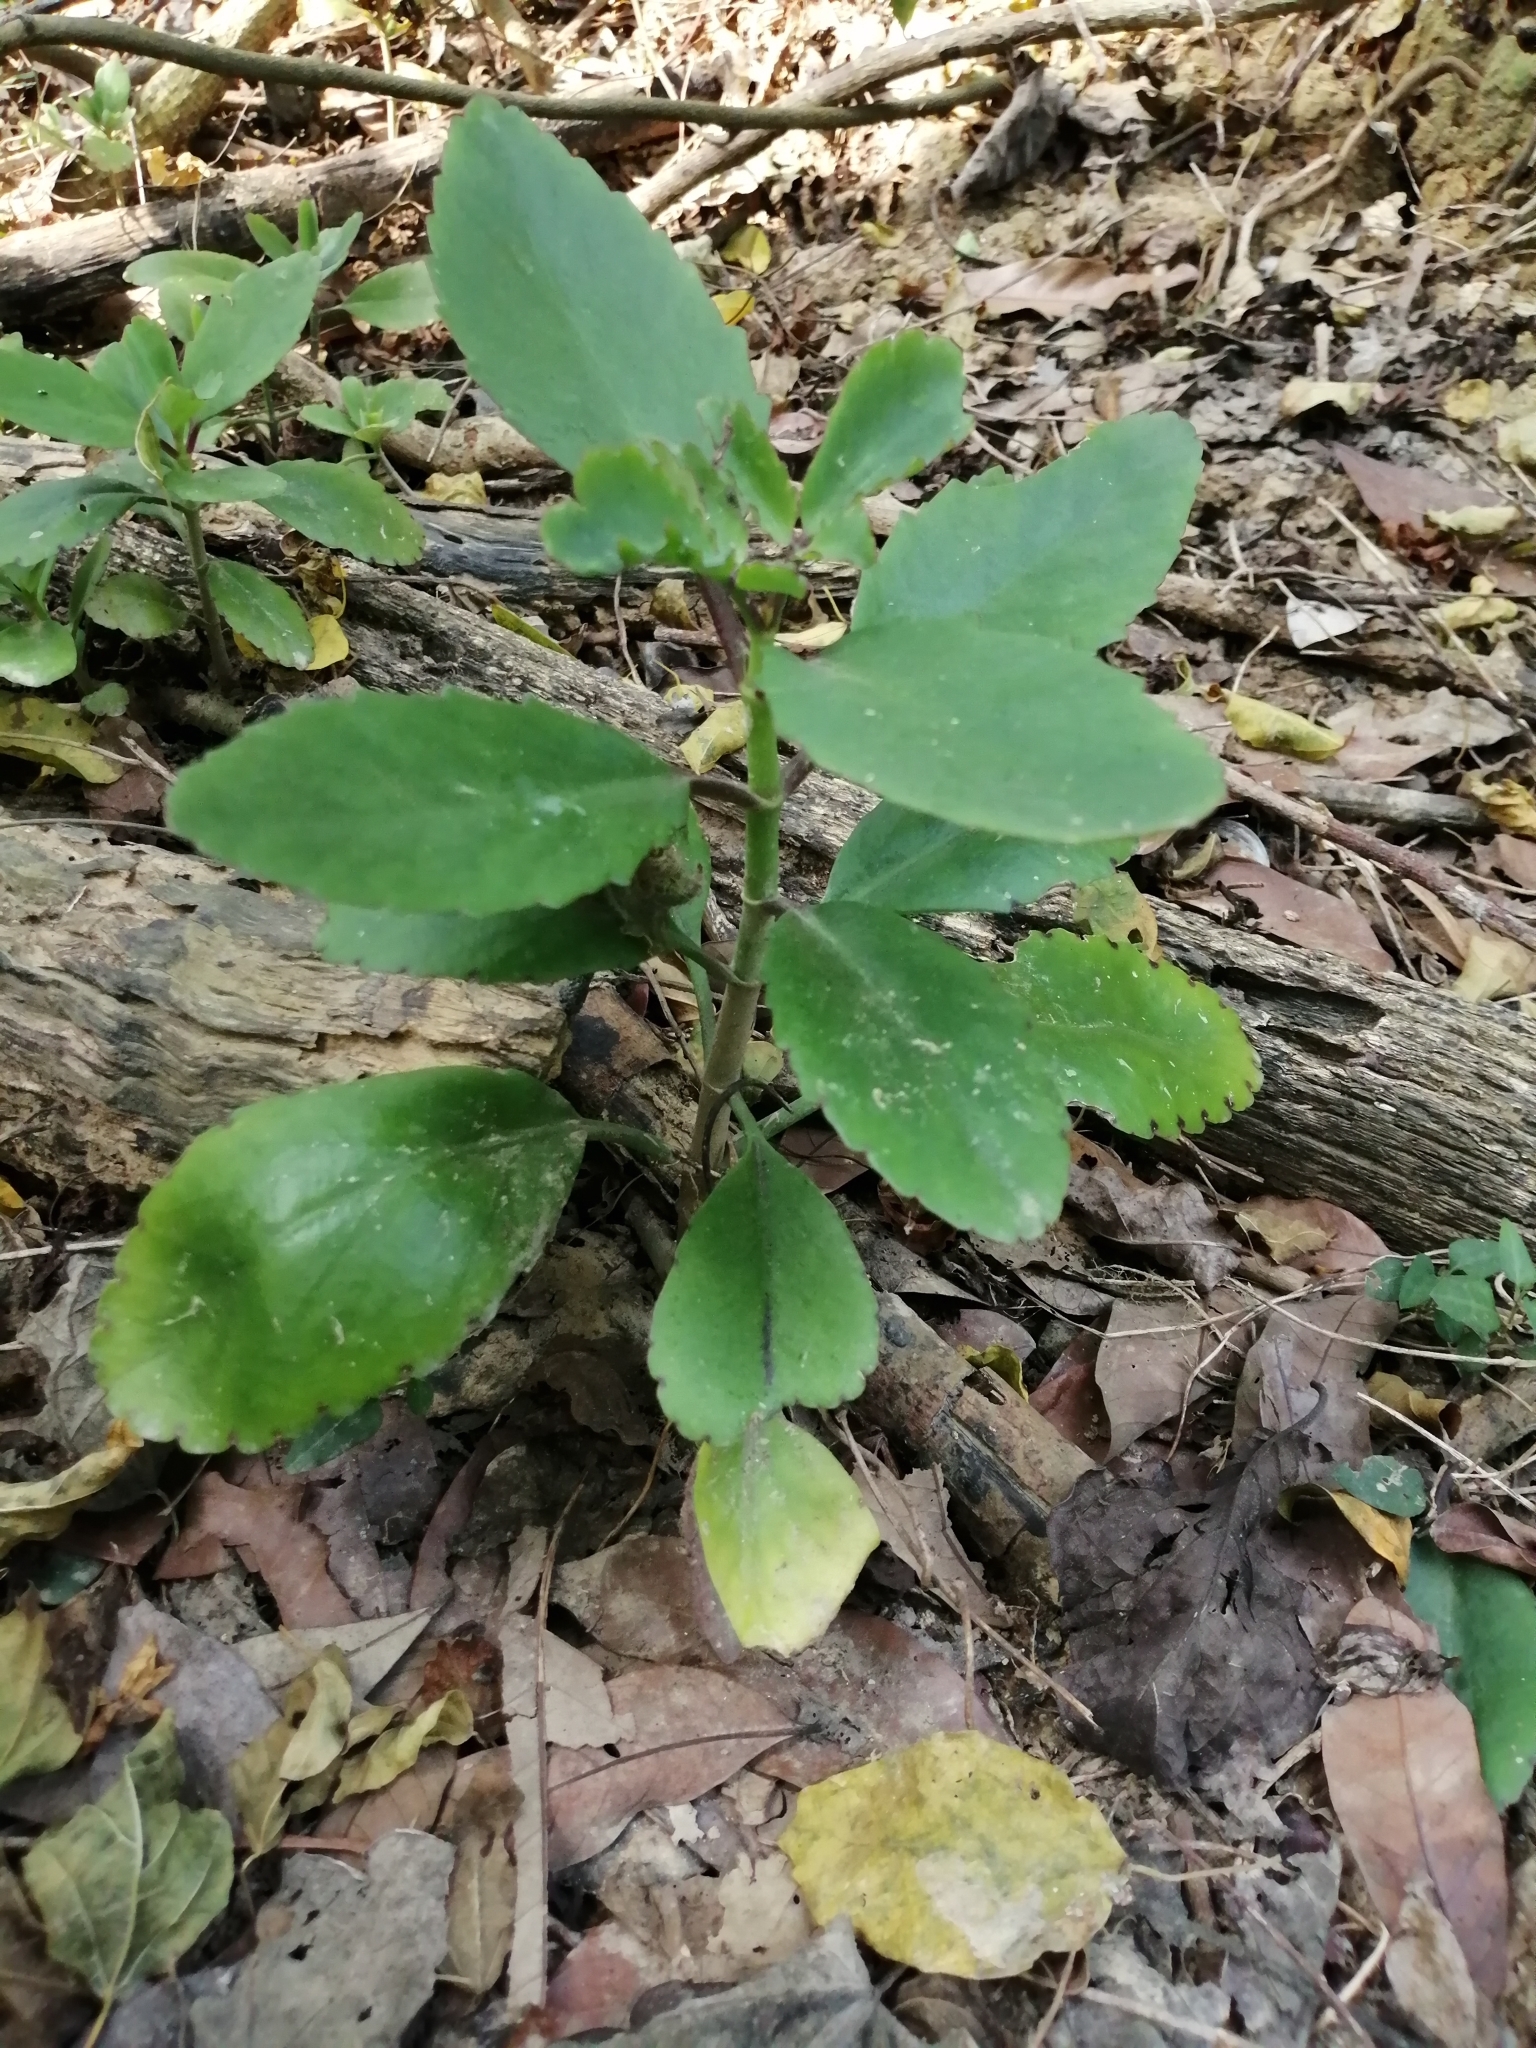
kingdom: Plantae
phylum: Tracheophyta
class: Magnoliopsida
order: Saxifragales
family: Crassulaceae
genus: Kalanchoe
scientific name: Kalanchoe pinnata
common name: Cathedral bells
